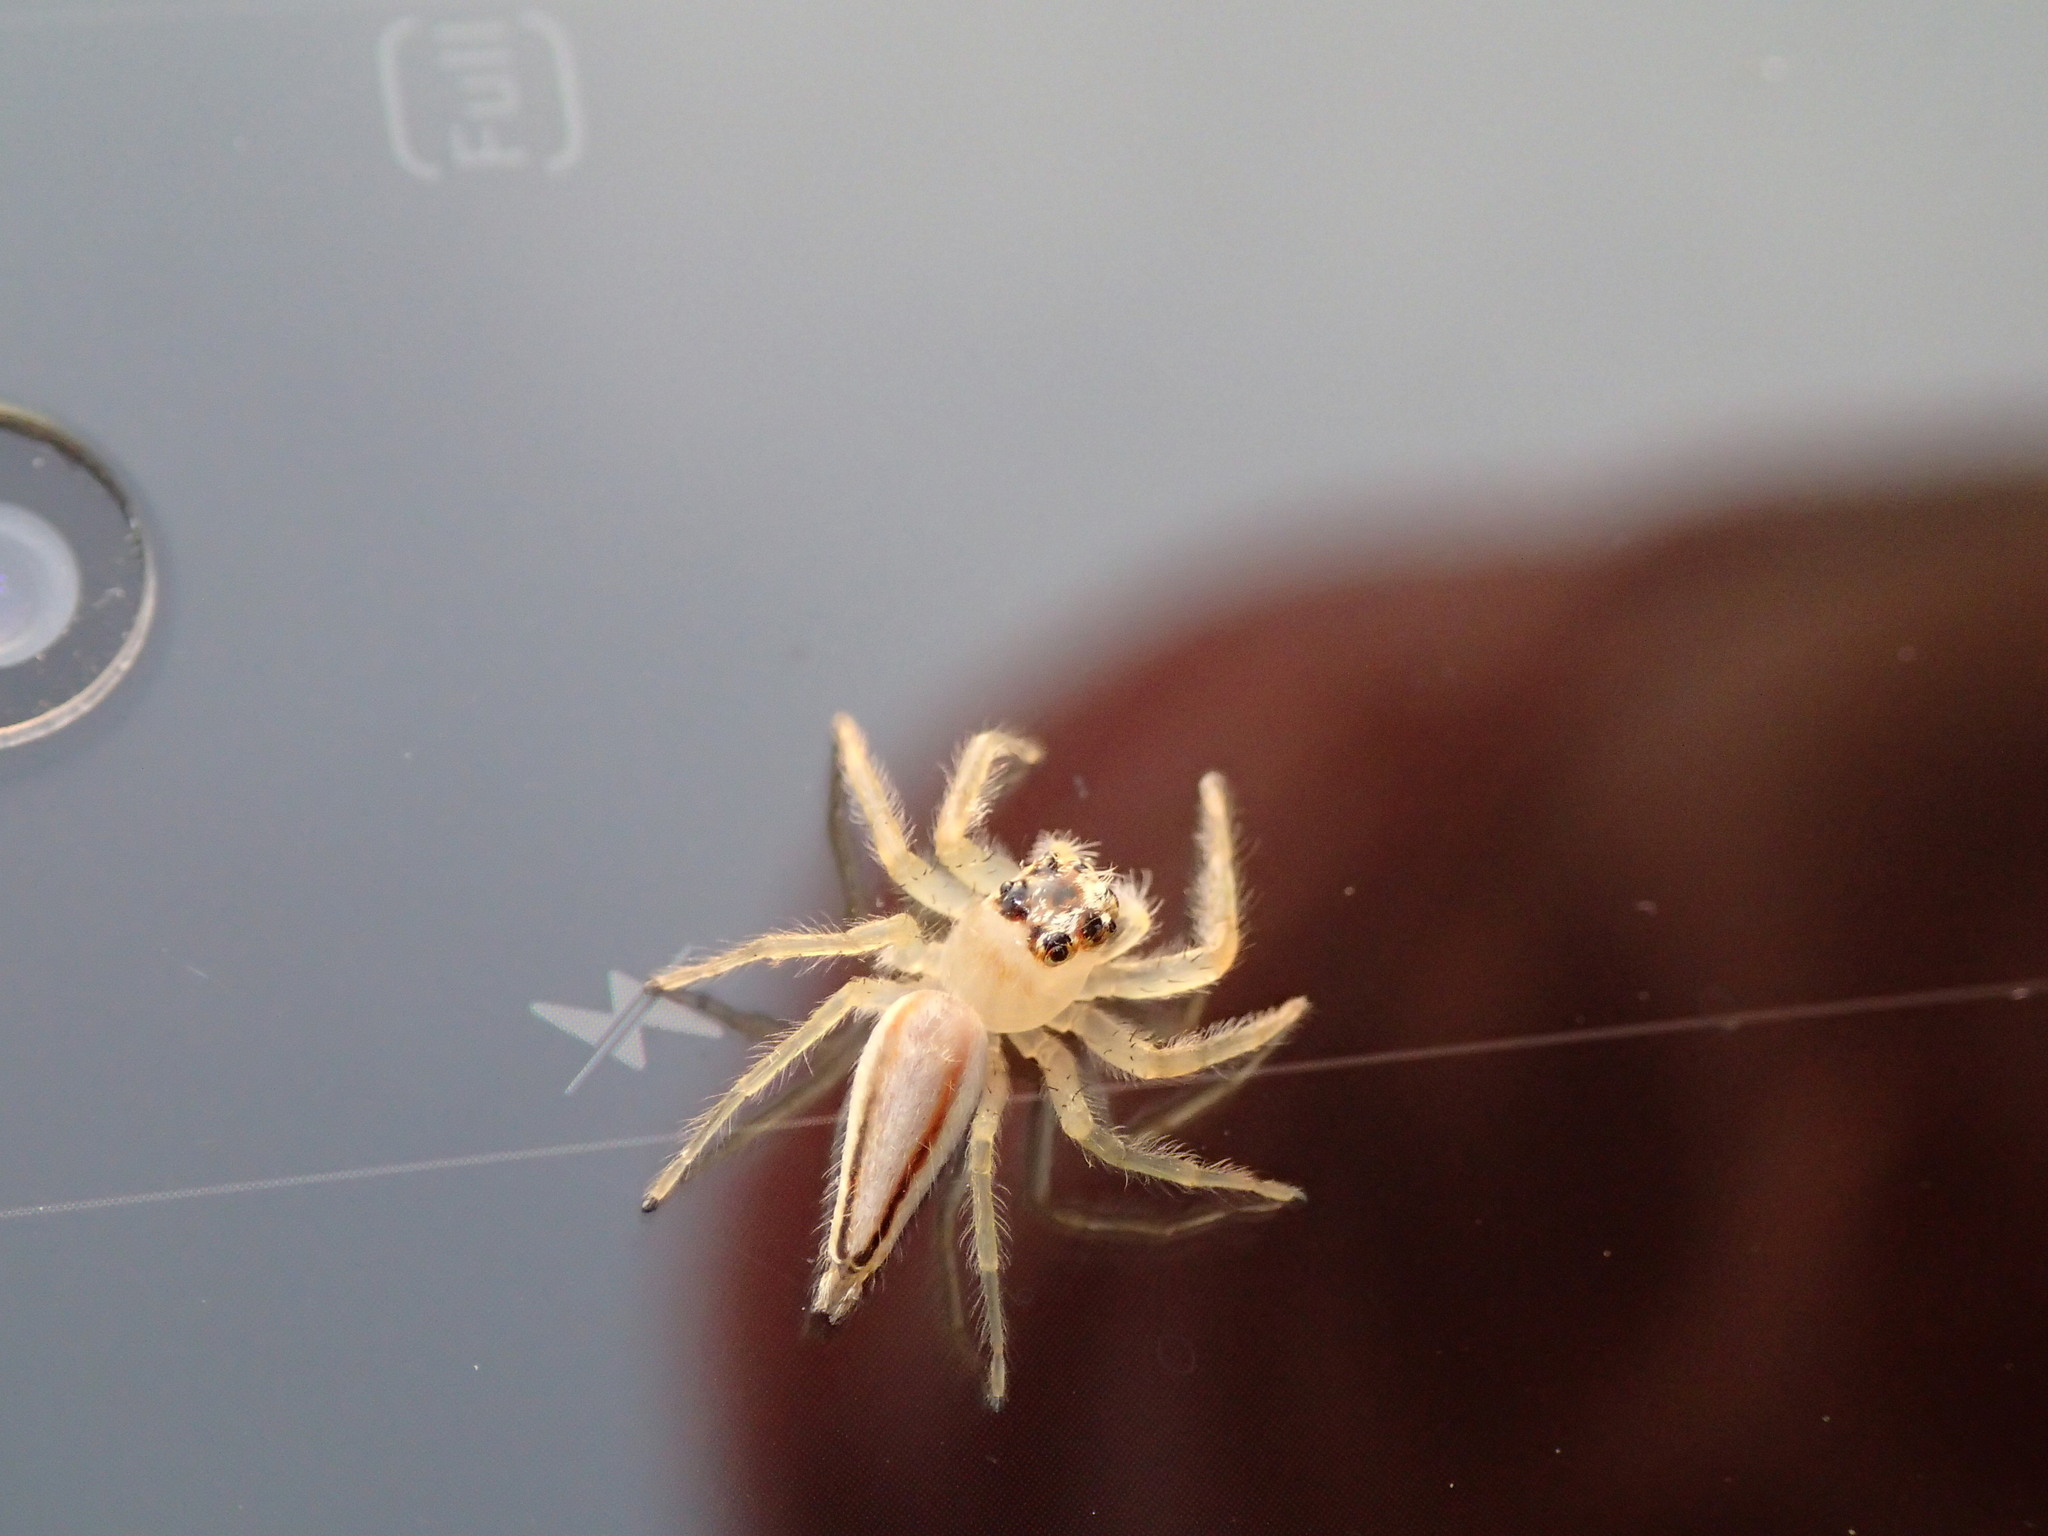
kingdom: Animalia
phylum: Arthropoda
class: Arachnida
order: Araneae
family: Salticidae
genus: Telamonia
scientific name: Telamonia dimidiata
